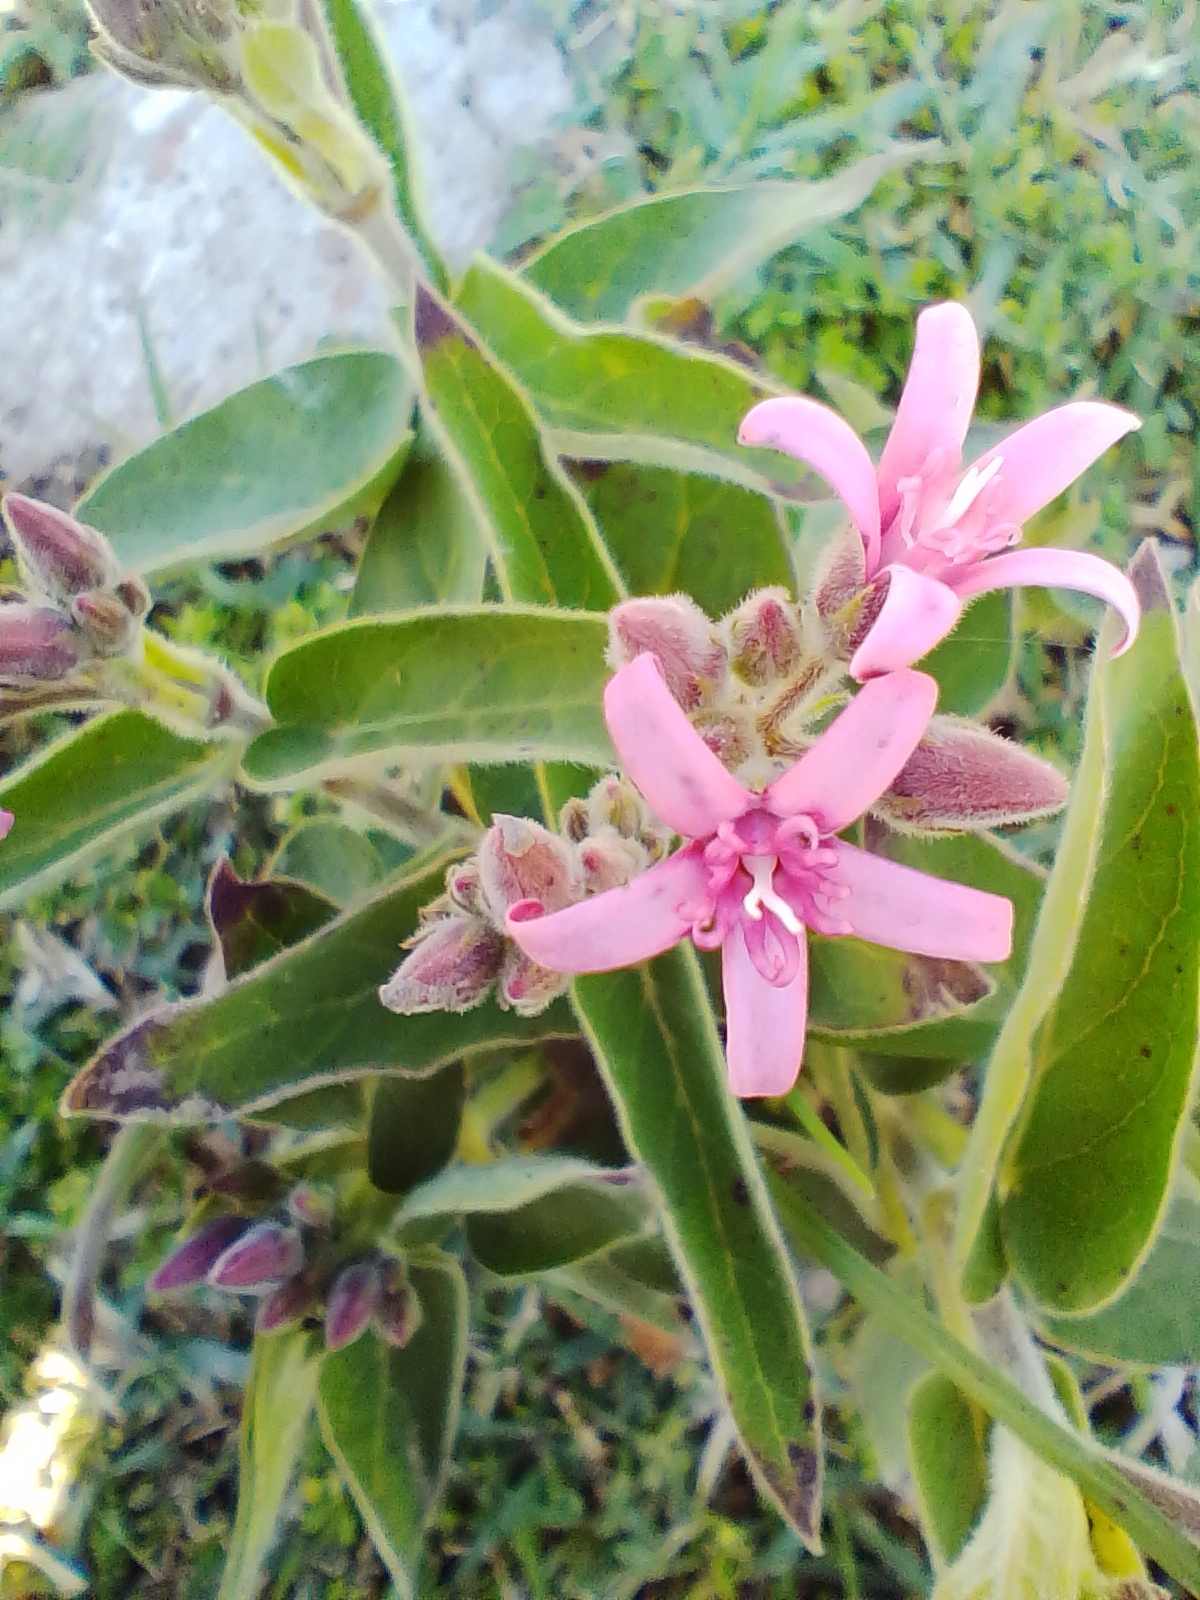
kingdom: Plantae
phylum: Tracheophyta
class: Magnoliopsida
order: Gentianales
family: Apocynaceae
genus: Oxypetalum
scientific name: Oxypetalum solanoides
